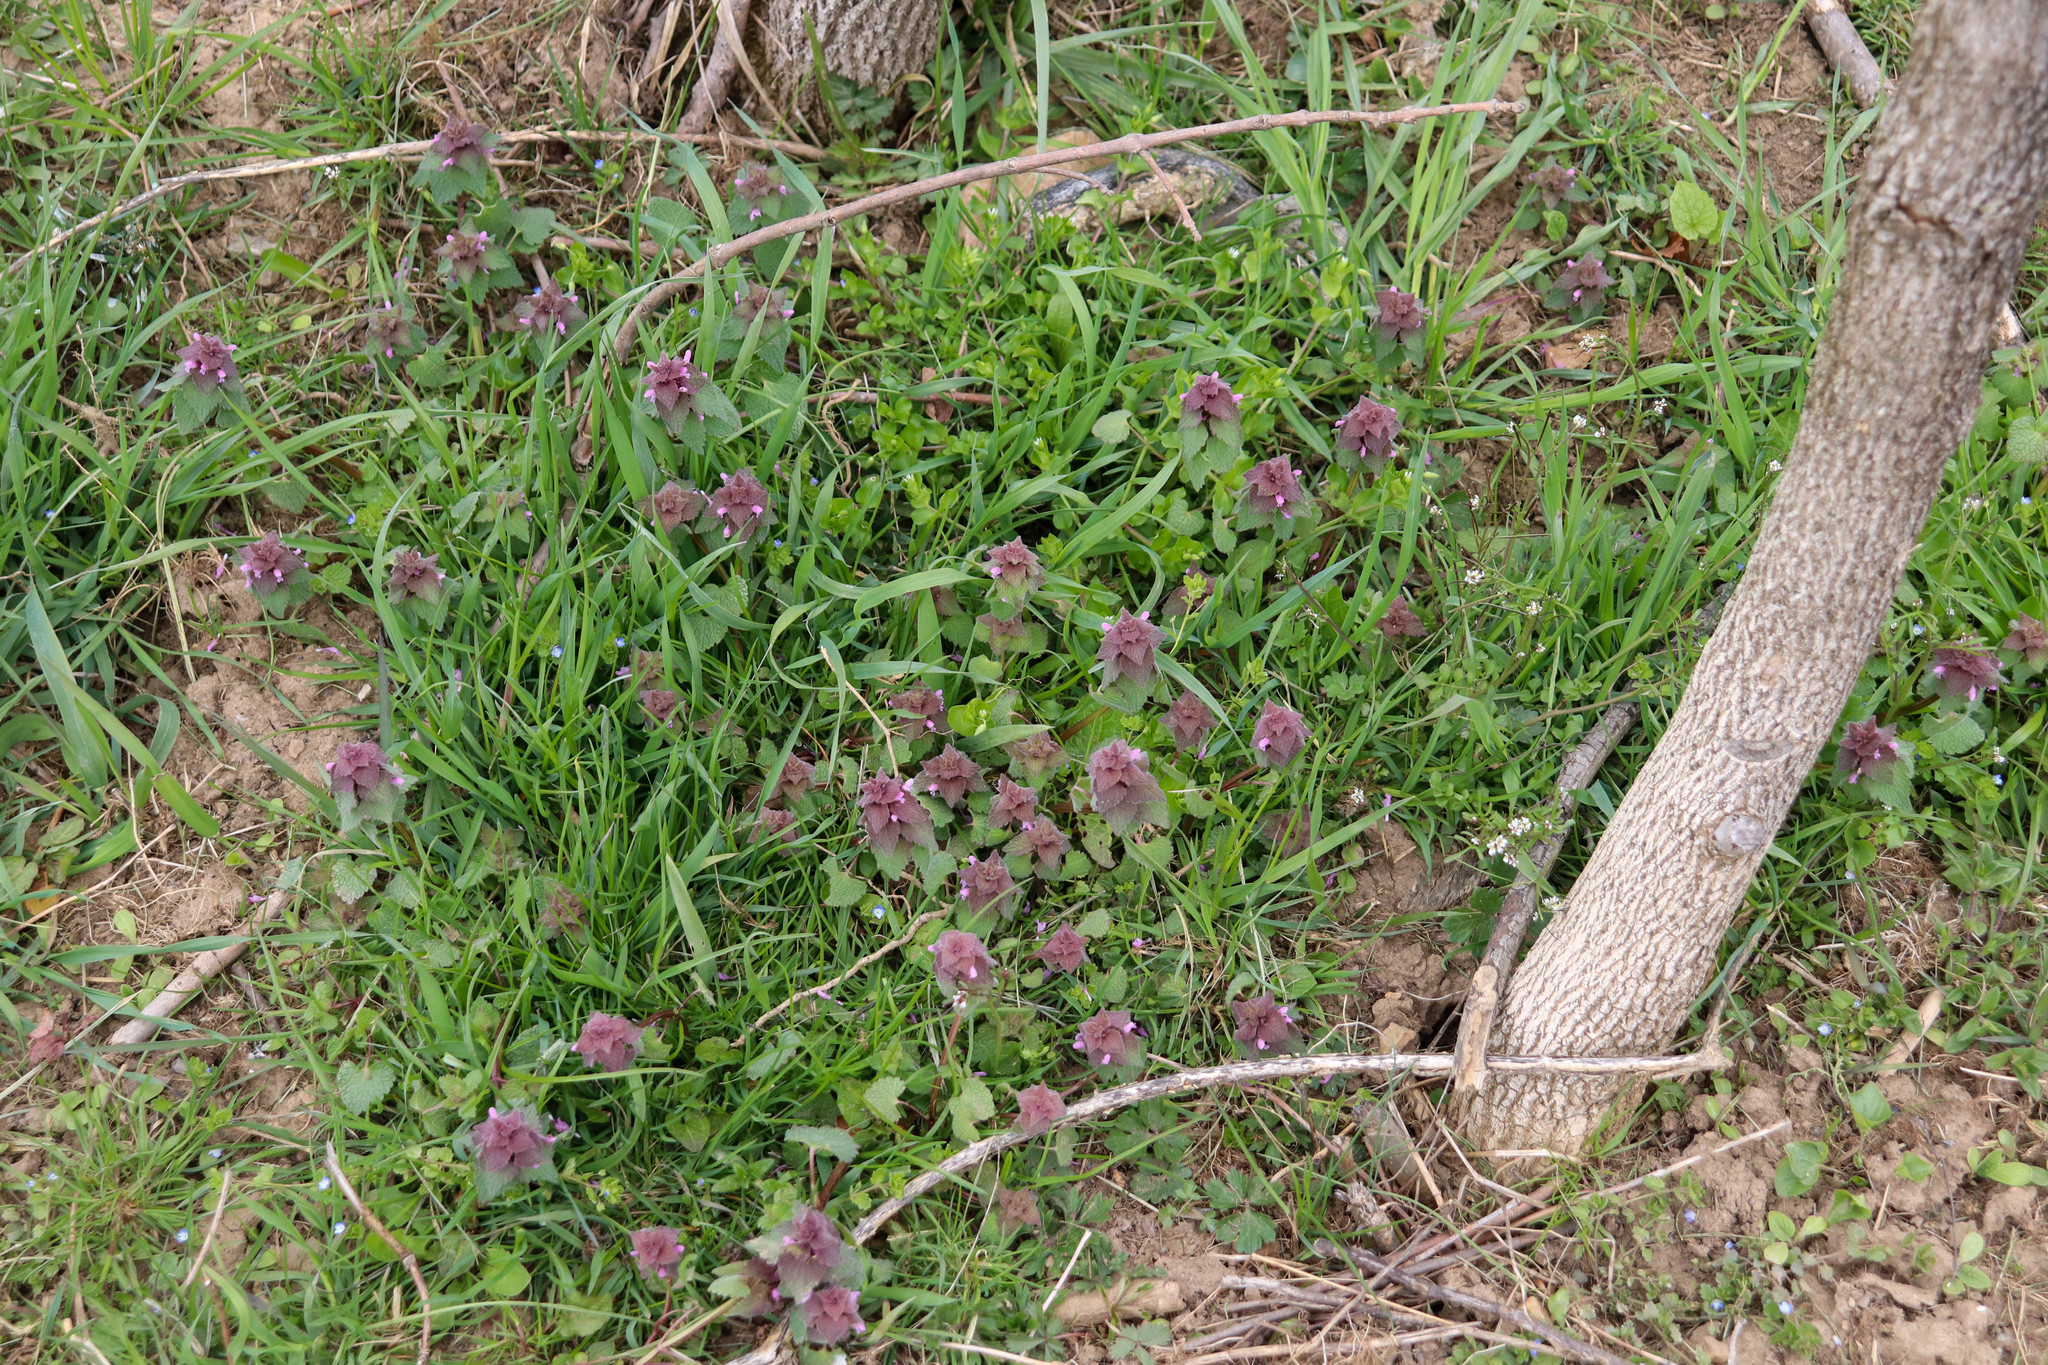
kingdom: Plantae
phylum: Tracheophyta
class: Magnoliopsida
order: Lamiales
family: Lamiaceae
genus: Lamium
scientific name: Lamium purpureum
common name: Red dead-nettle
